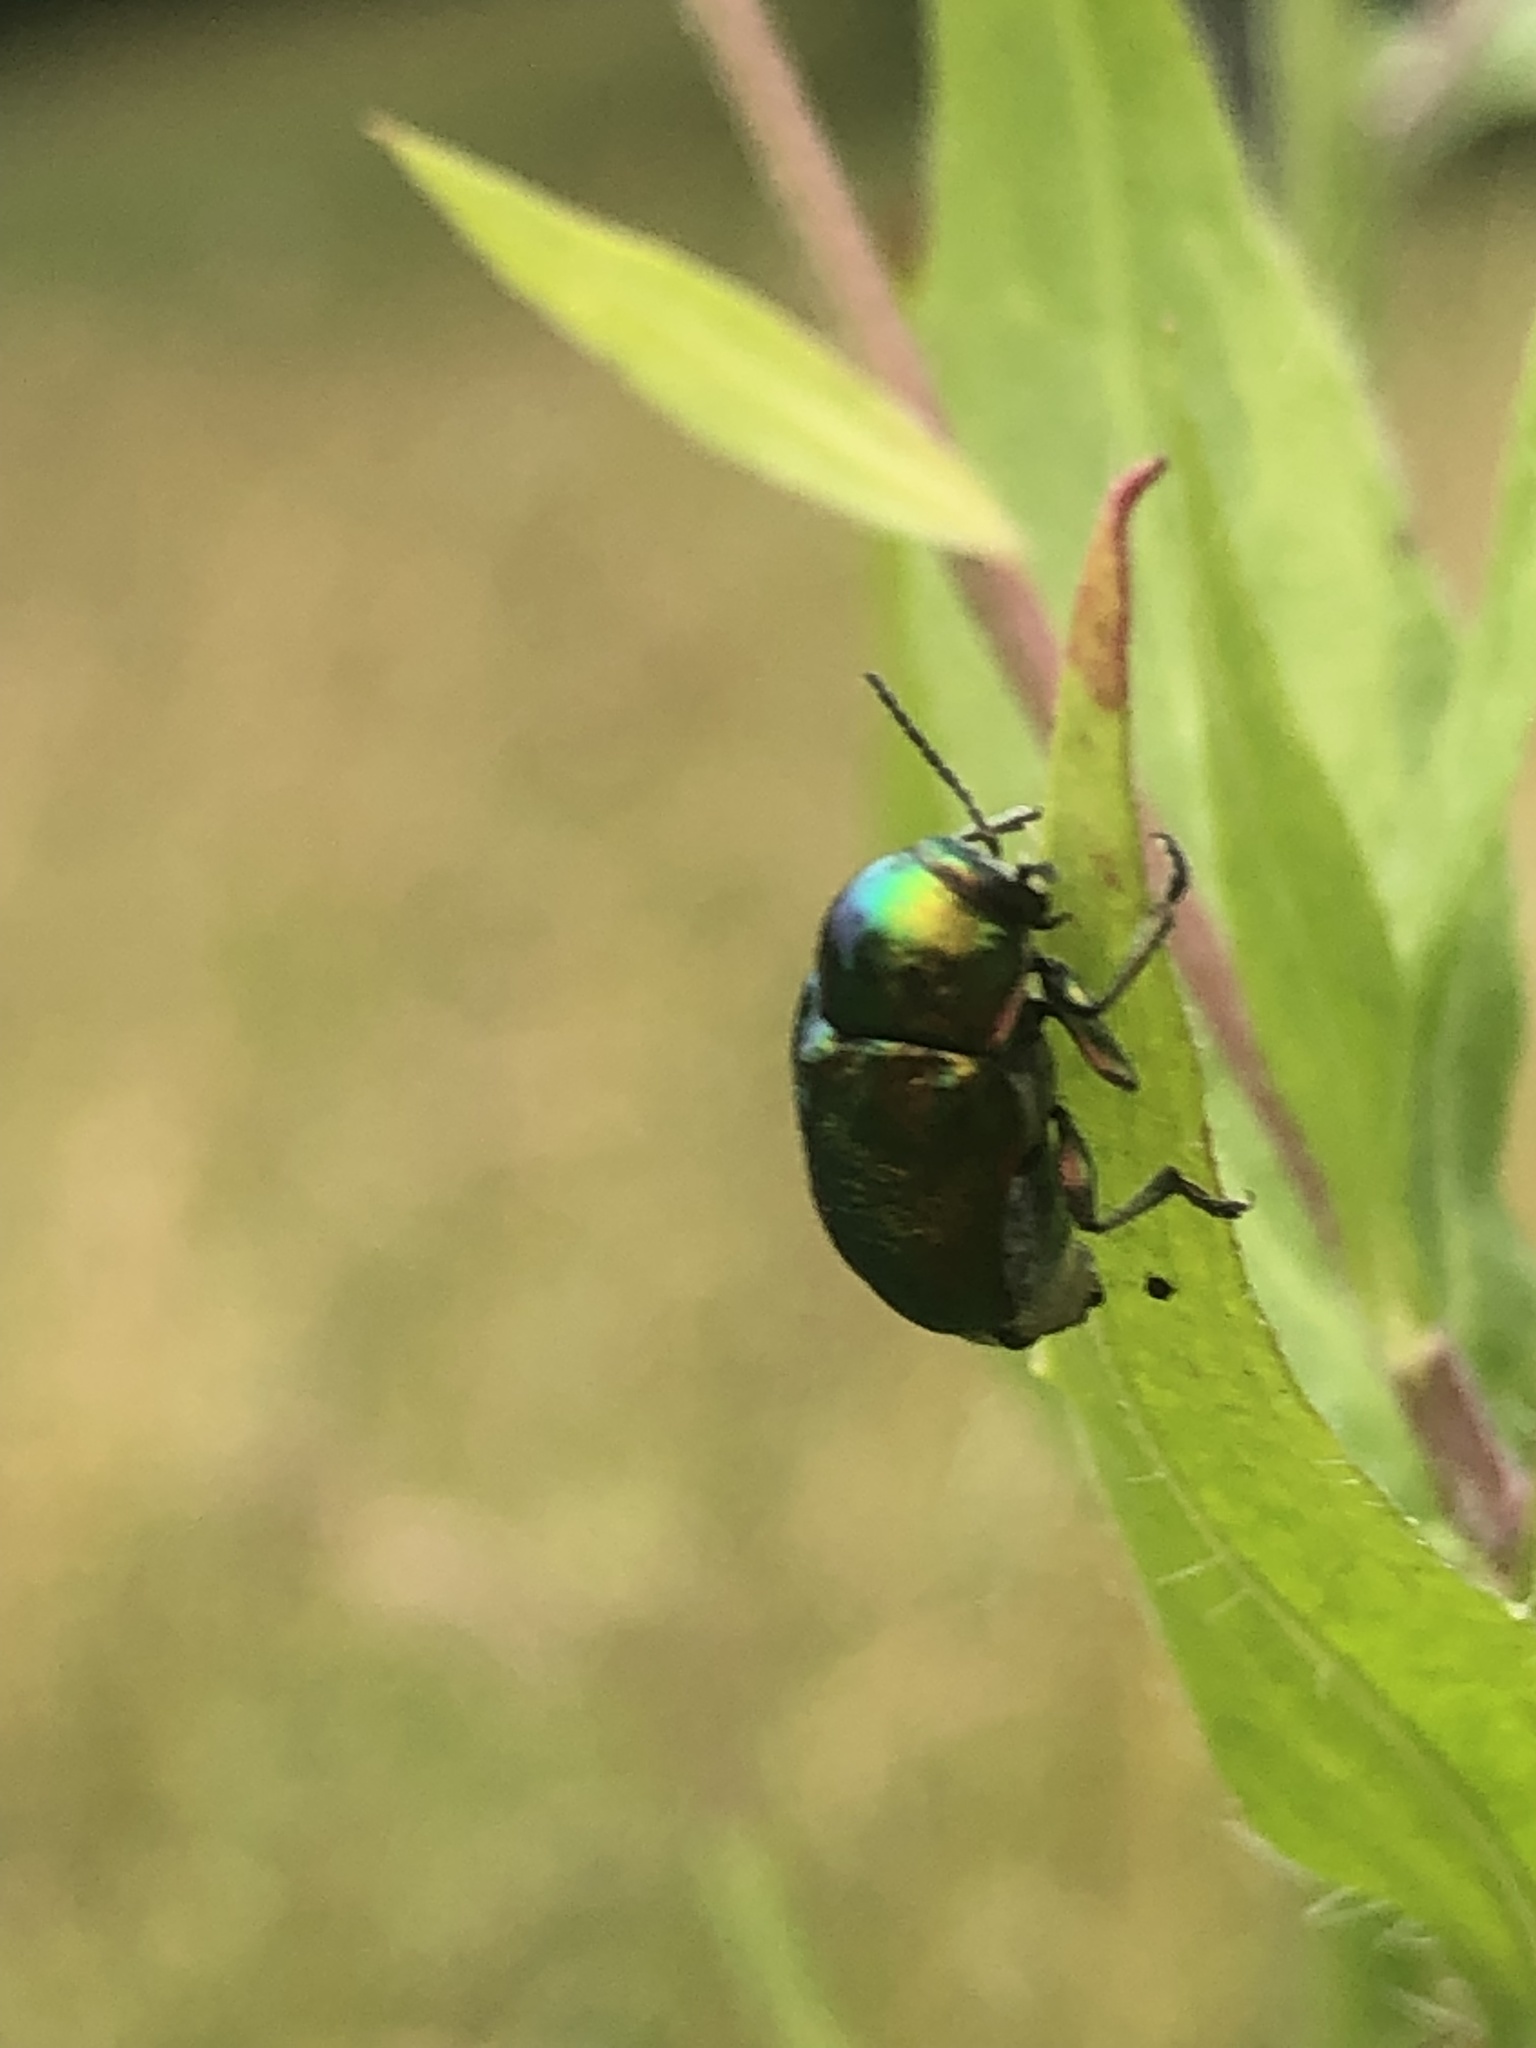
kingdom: Animalia
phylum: Arthropoda
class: Insecta
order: Coleoptera
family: Chrysomelidae
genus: Cryptocephalus
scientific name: Cryptocephalus
